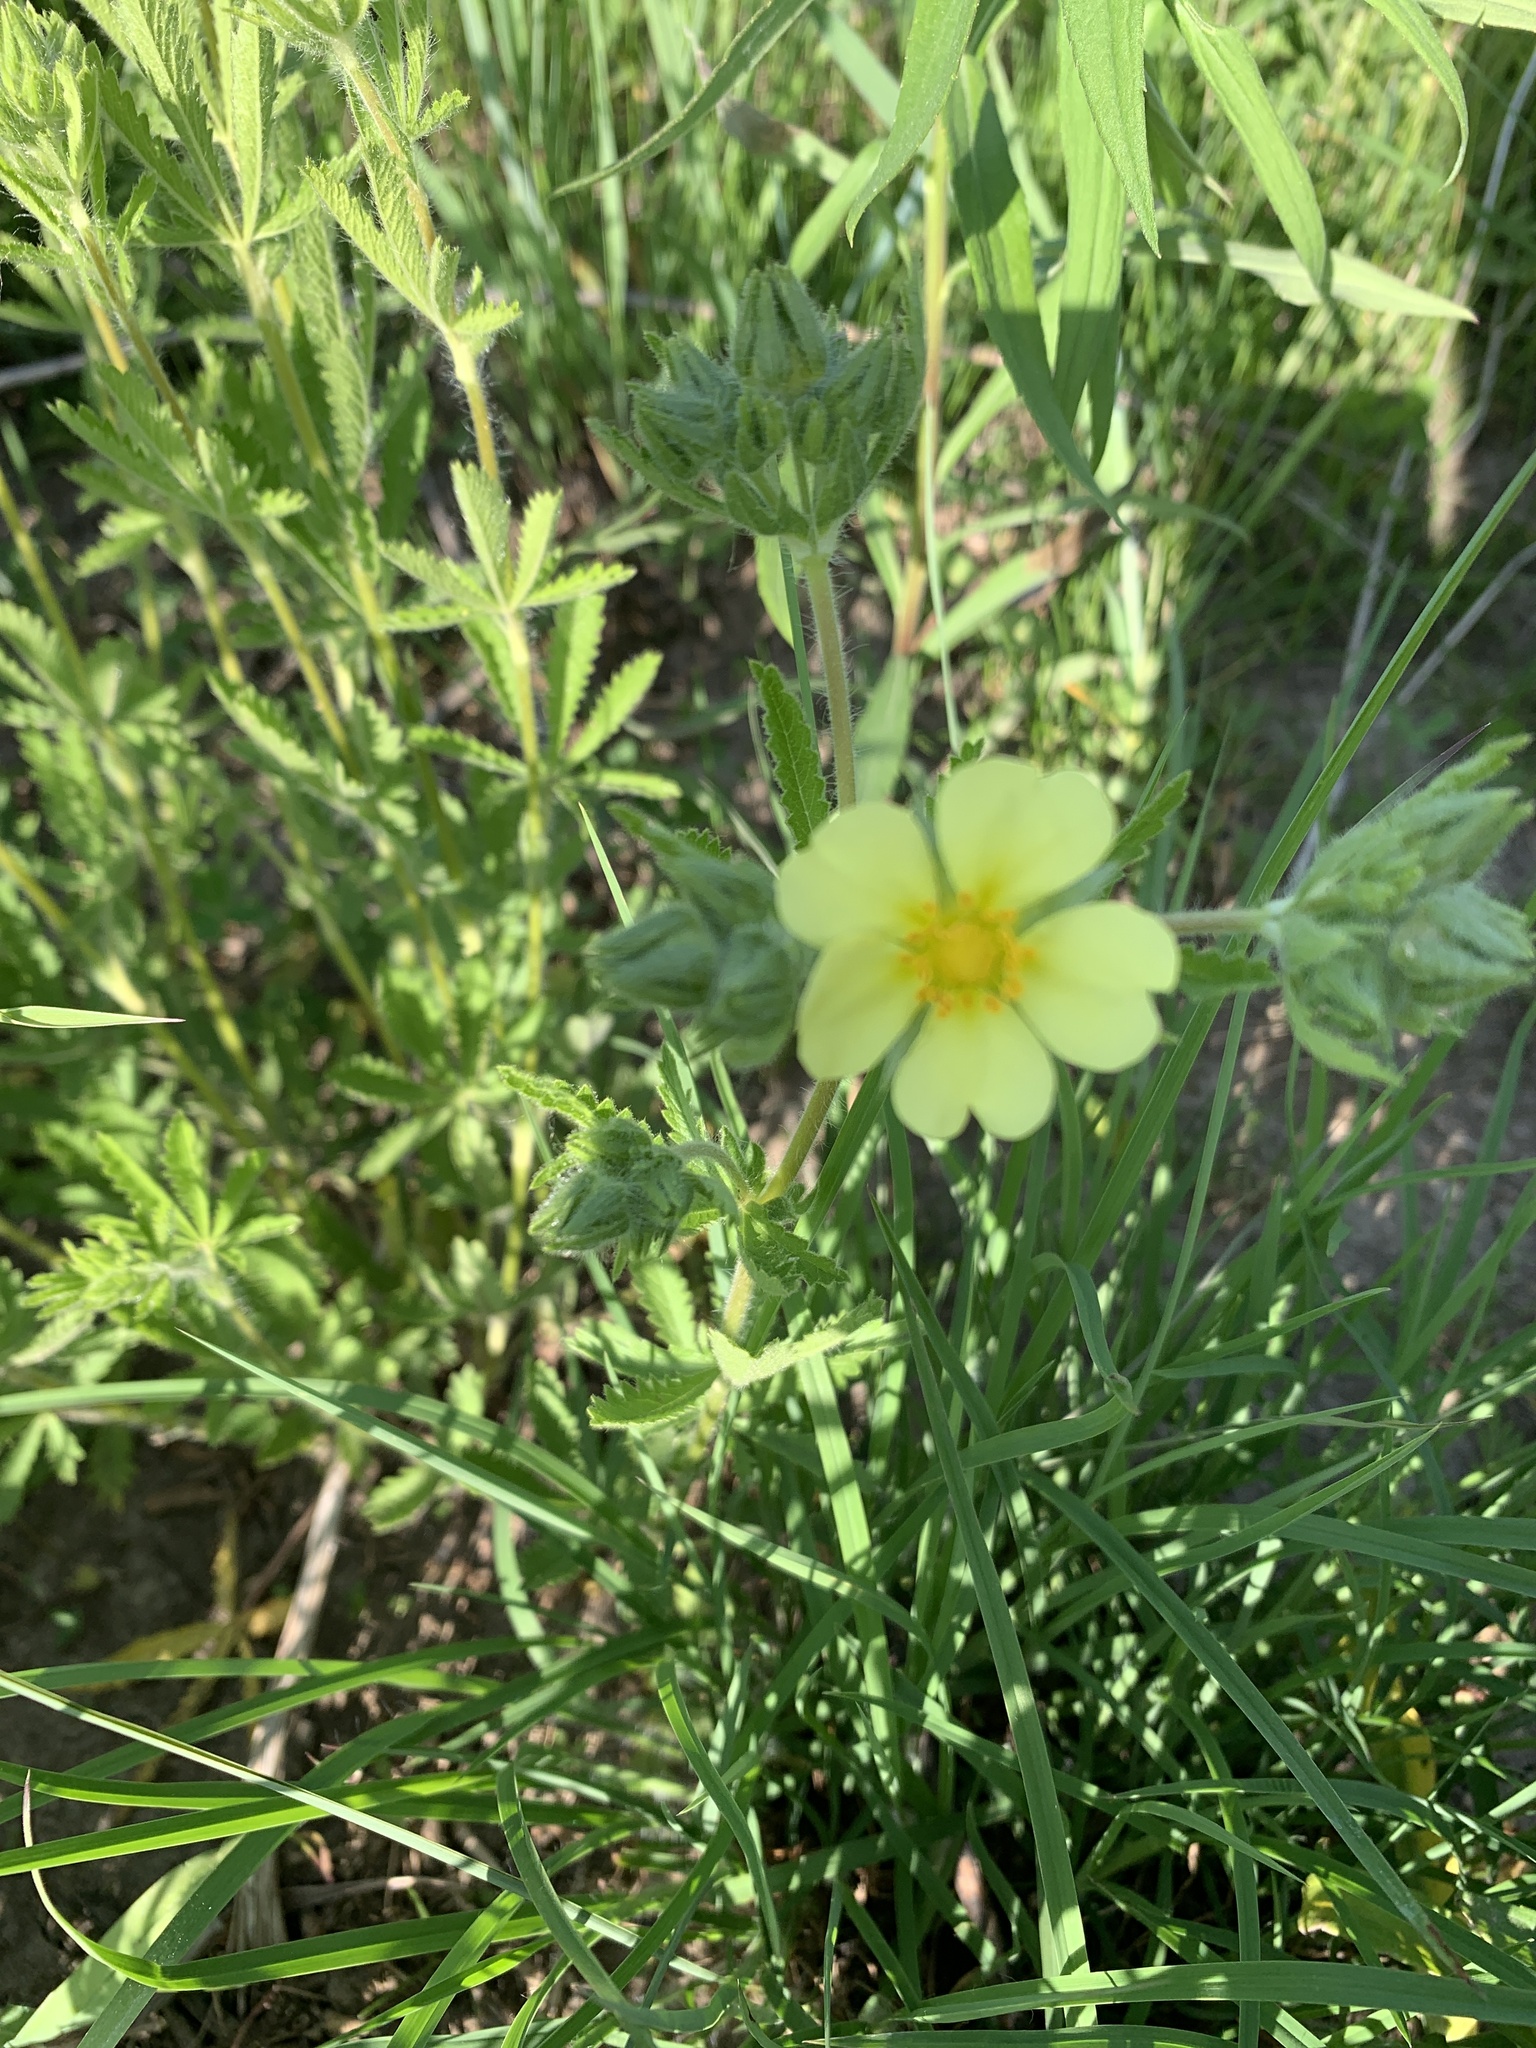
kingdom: Plantae
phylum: Tracheophyta
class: Magnoliopsida
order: Rosales
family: Rosaceae
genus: Potentilla
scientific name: Potentilla recta
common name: Sulphur cinquefoil
